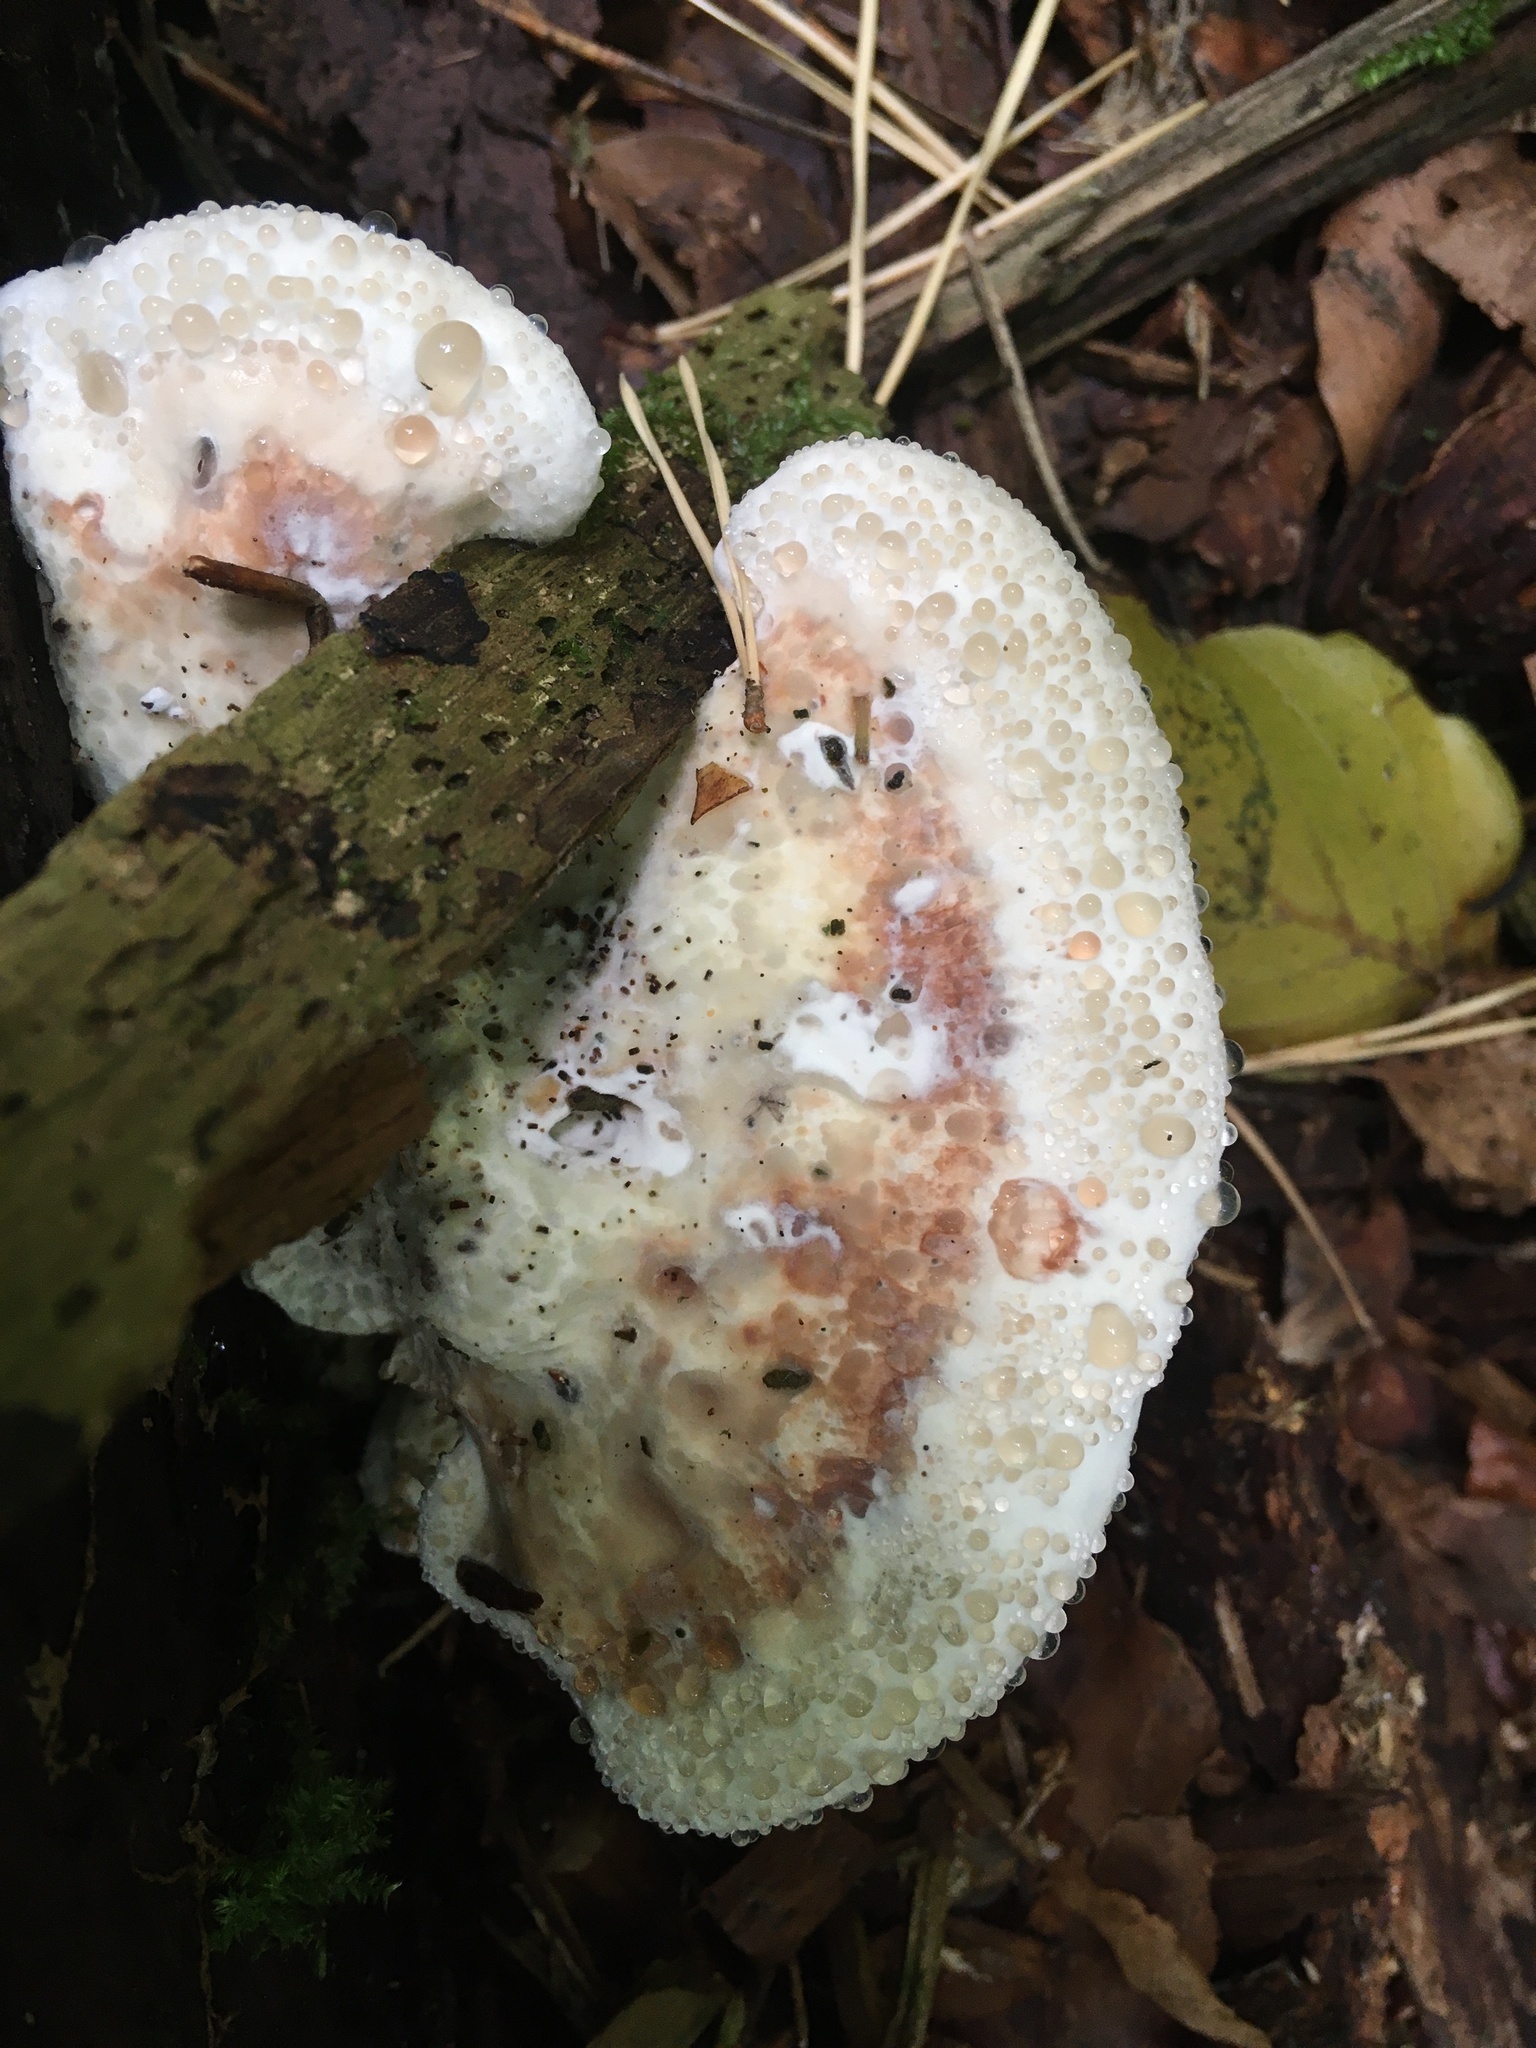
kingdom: Fungi
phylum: Basidiomycota
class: Agaricomycetes
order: Polyporales
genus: Calcipostia
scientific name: Calcipostia guttulata
